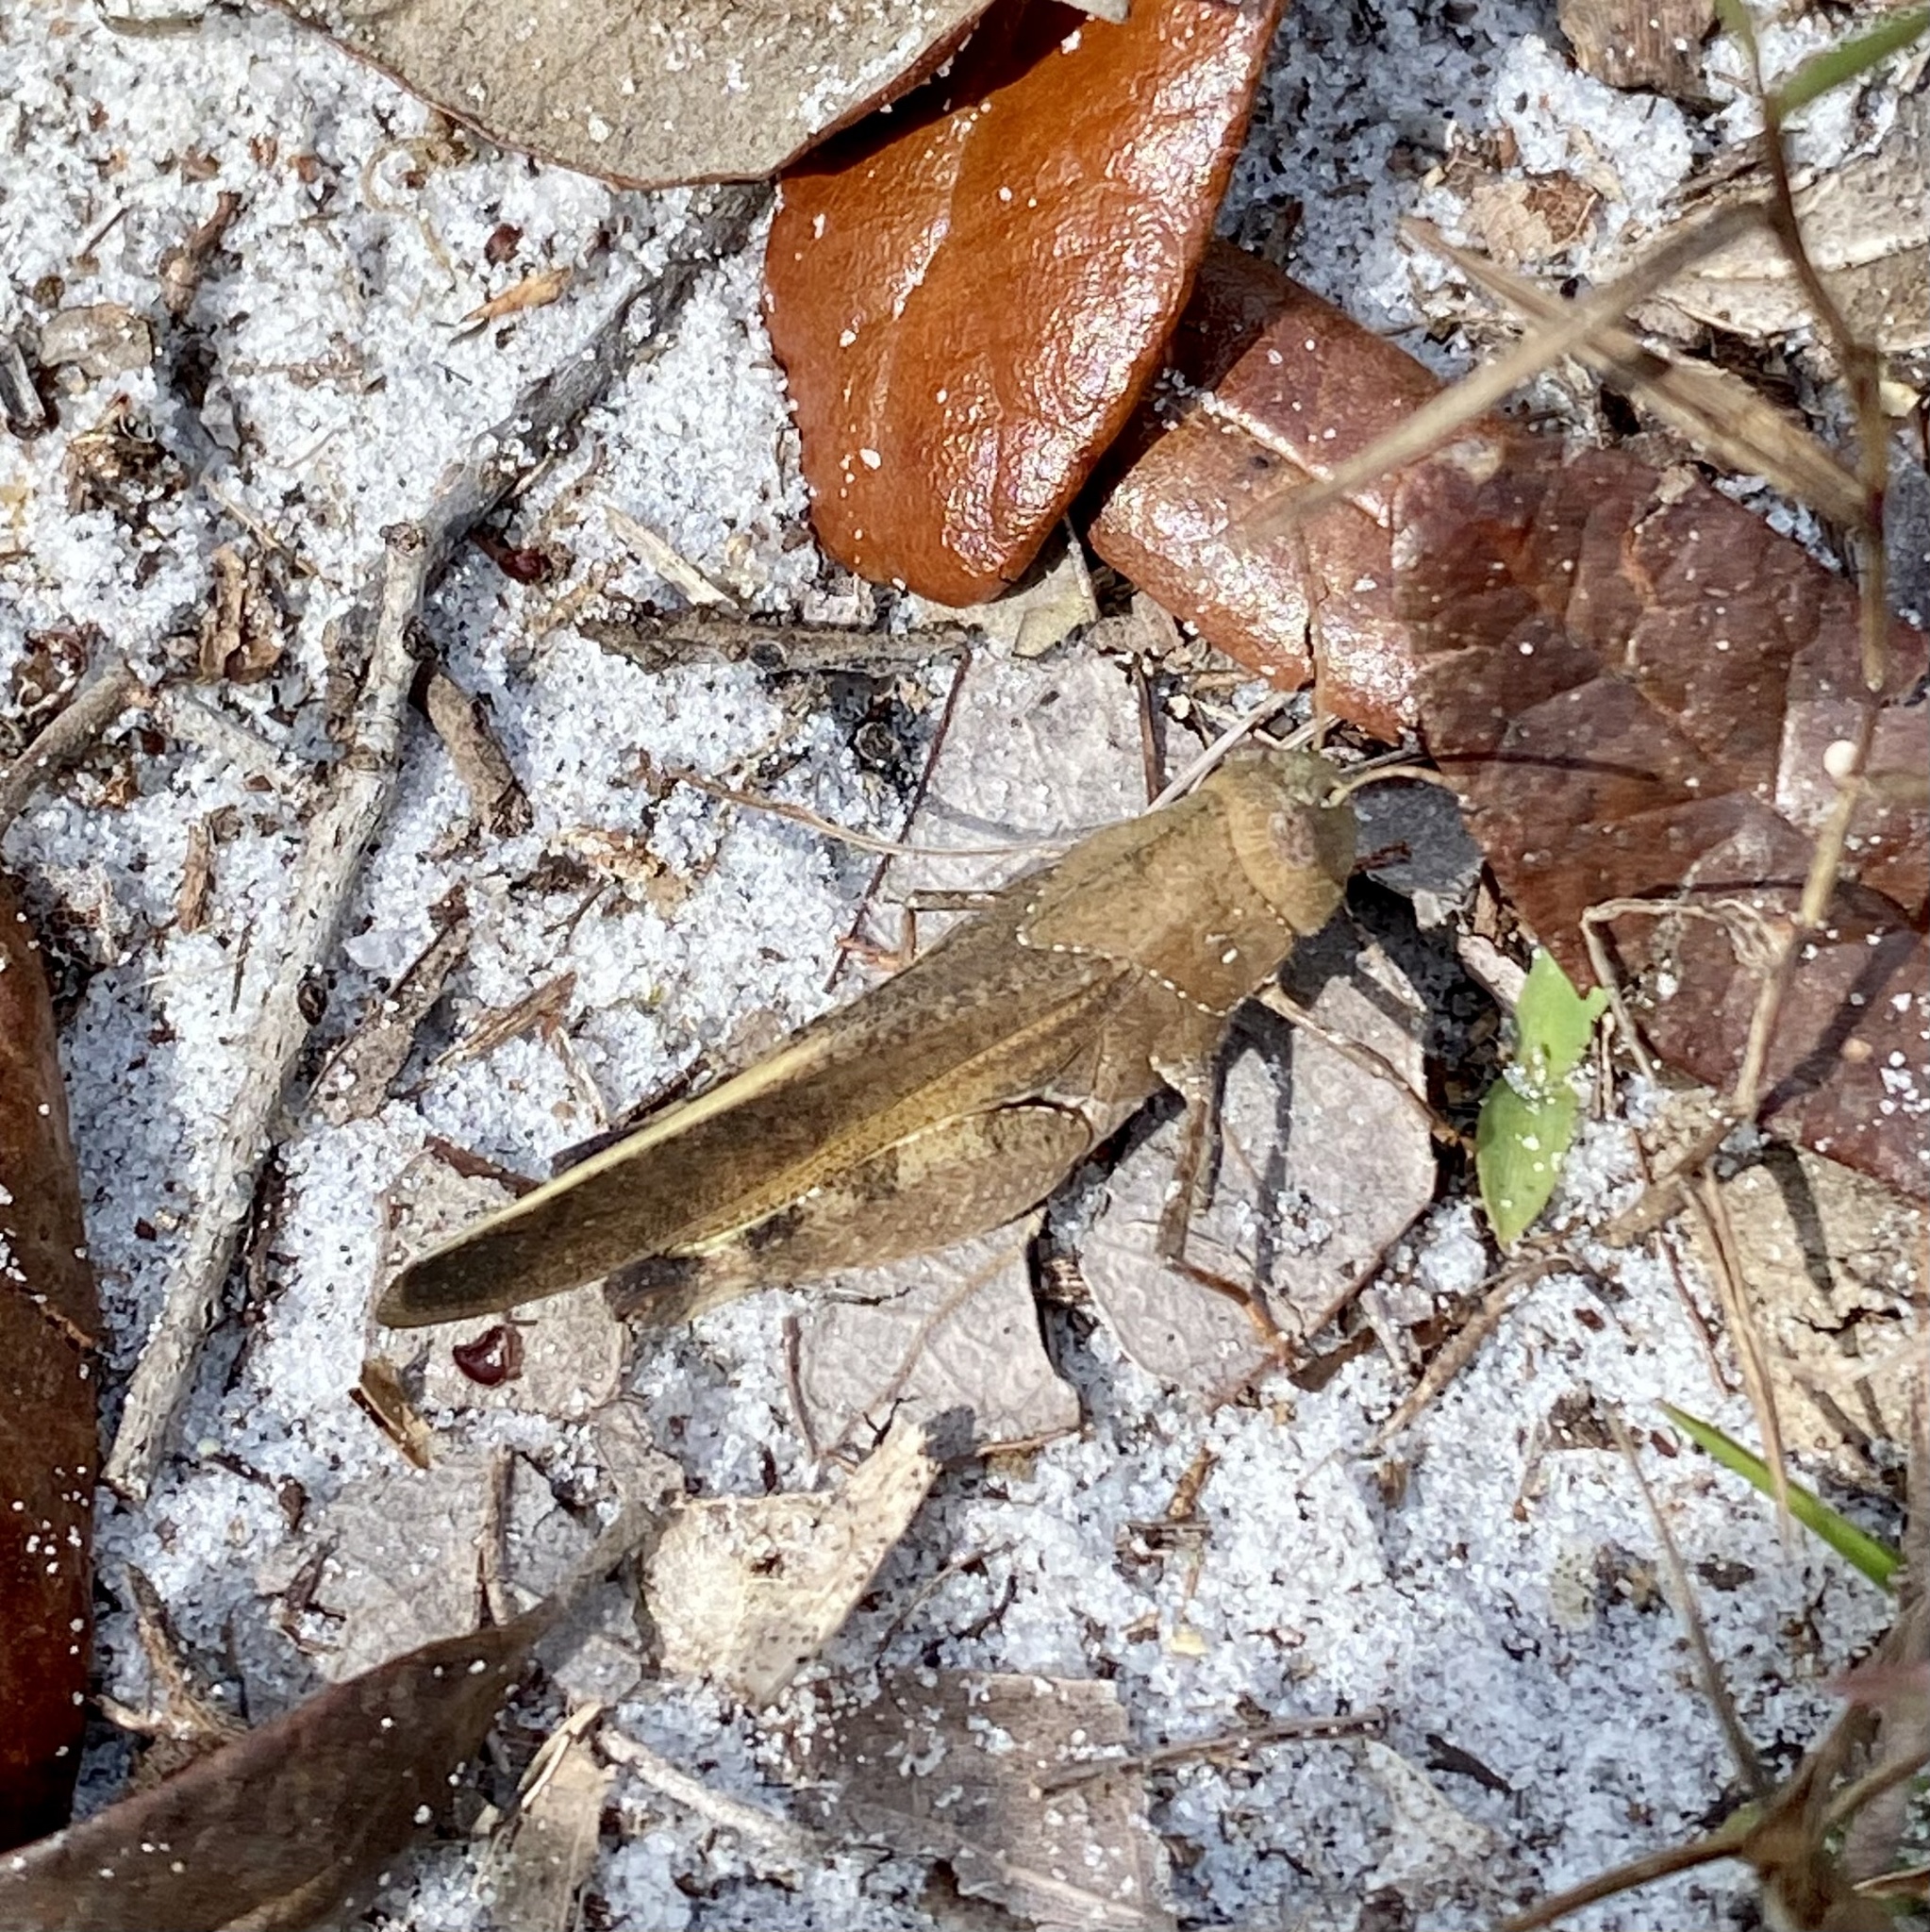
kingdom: Animalia
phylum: Arthropoda
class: Insecta
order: Orthoptera
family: Acrididae
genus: Arphia
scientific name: Arphia granulata
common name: Southern yellow-winged grasshopper
